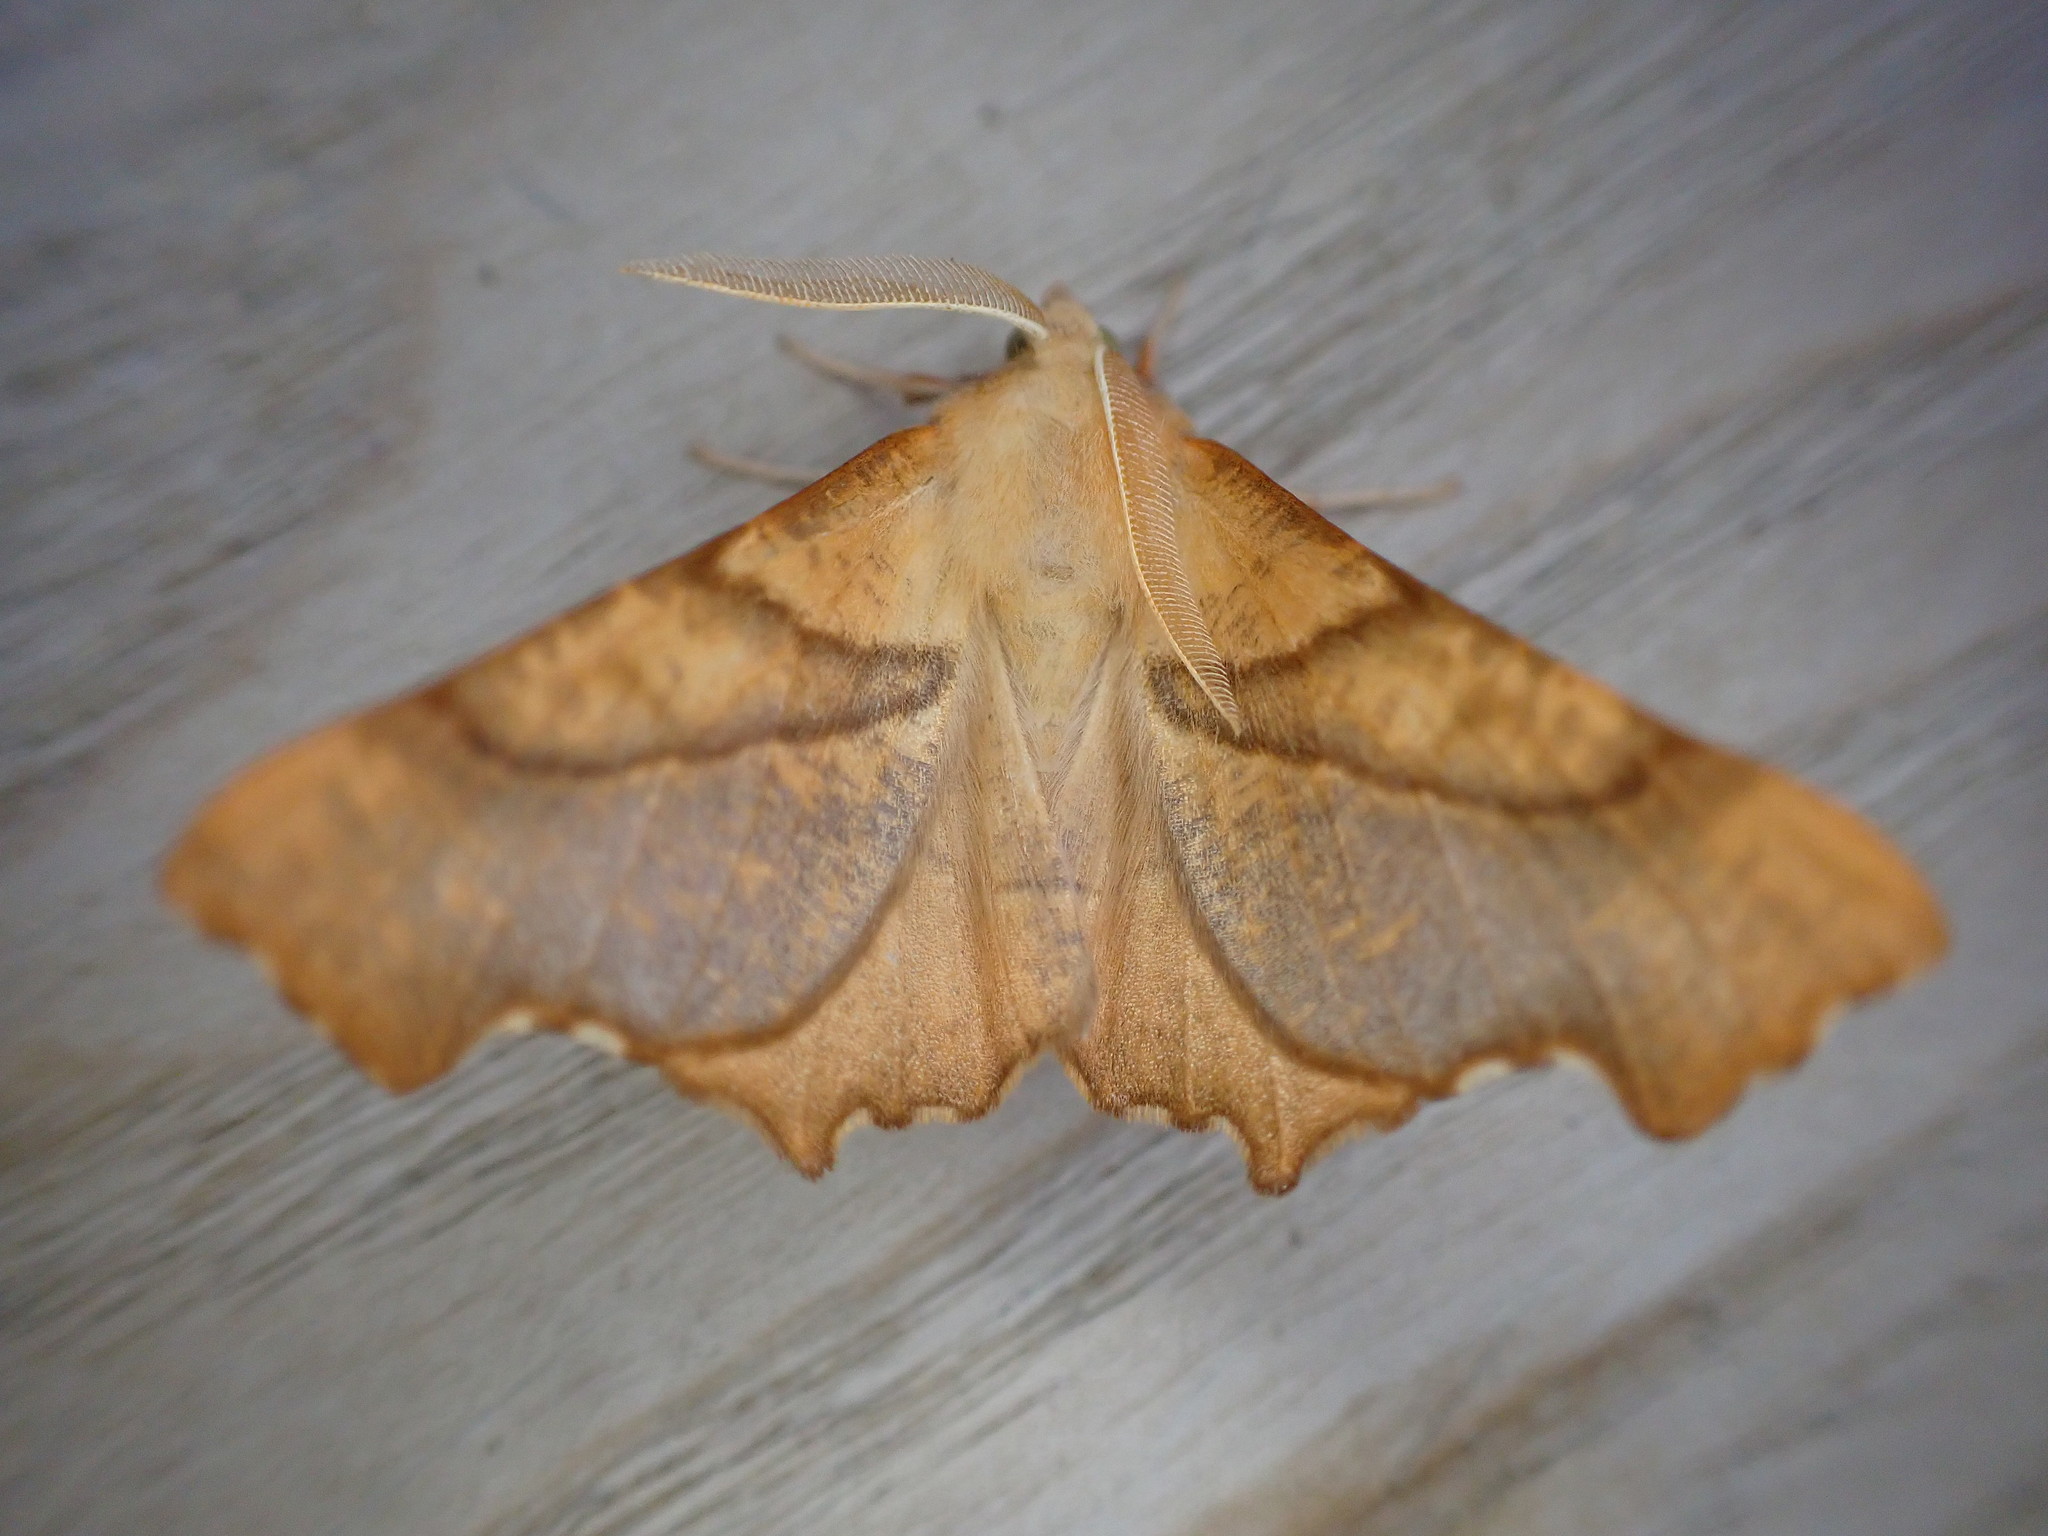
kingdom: Animalia
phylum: Arthropoda
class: Insecta
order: Lepidoptera
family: Geometridae
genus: Ennomos
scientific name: Ennomos fuscantaria
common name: Dusky thorn
